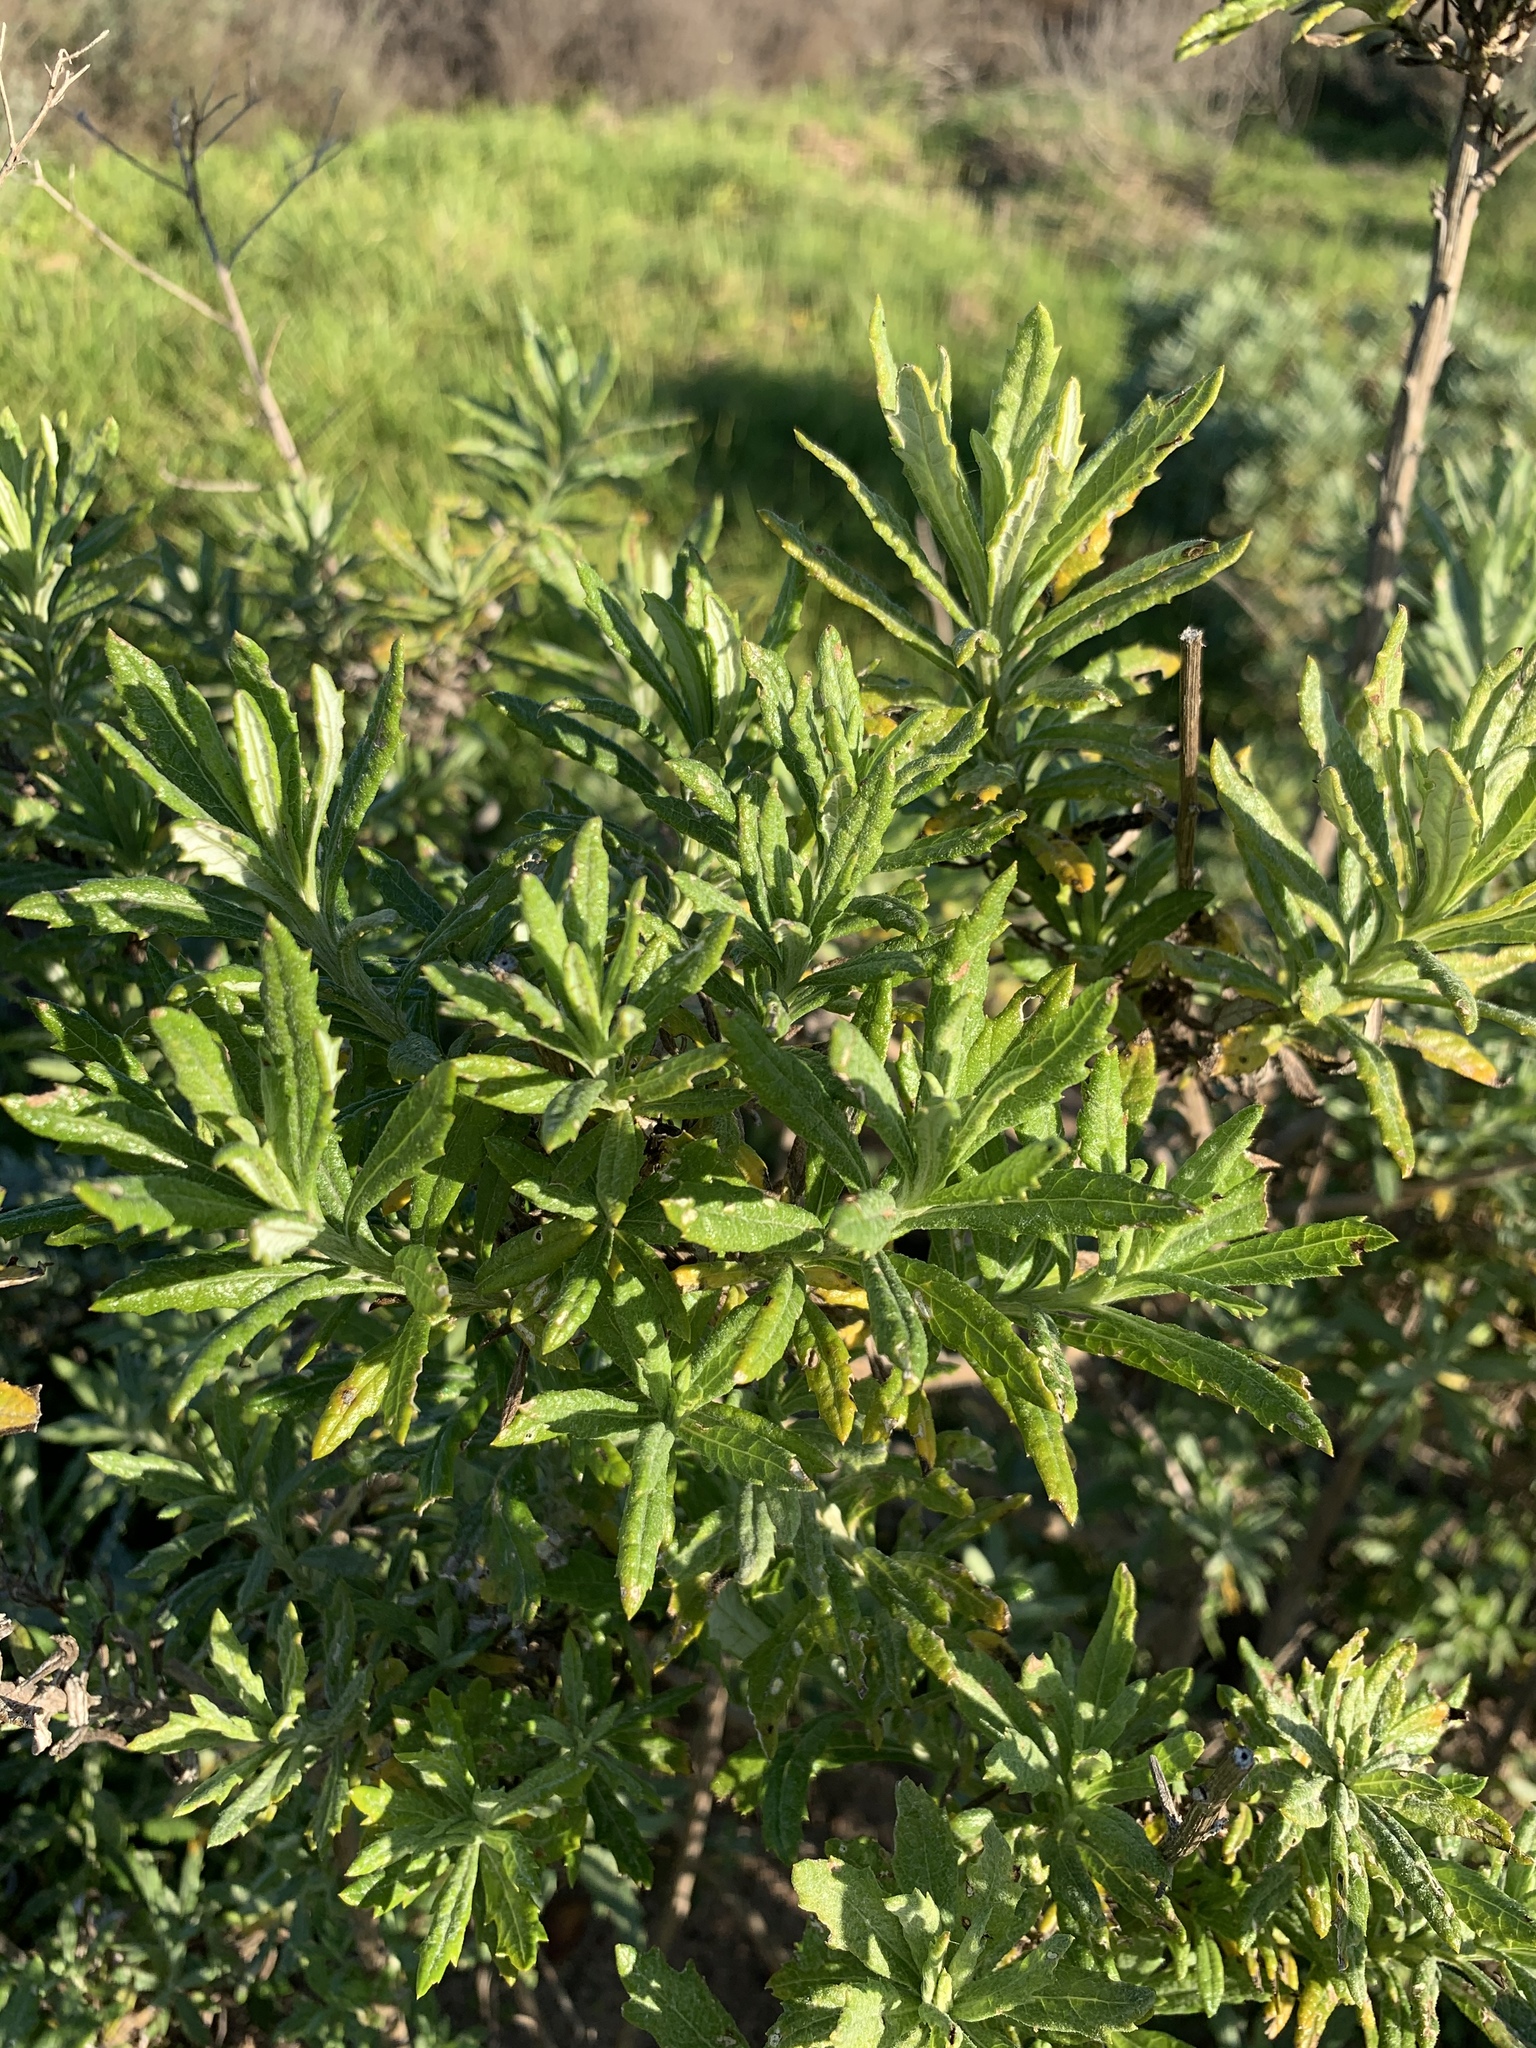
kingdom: Plantae
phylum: Tracheophyta
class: Magnoliopsida
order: Asterales
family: Asteraceae
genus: Senecio
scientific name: Senecio pterophorus
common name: Shoddy ragwort
